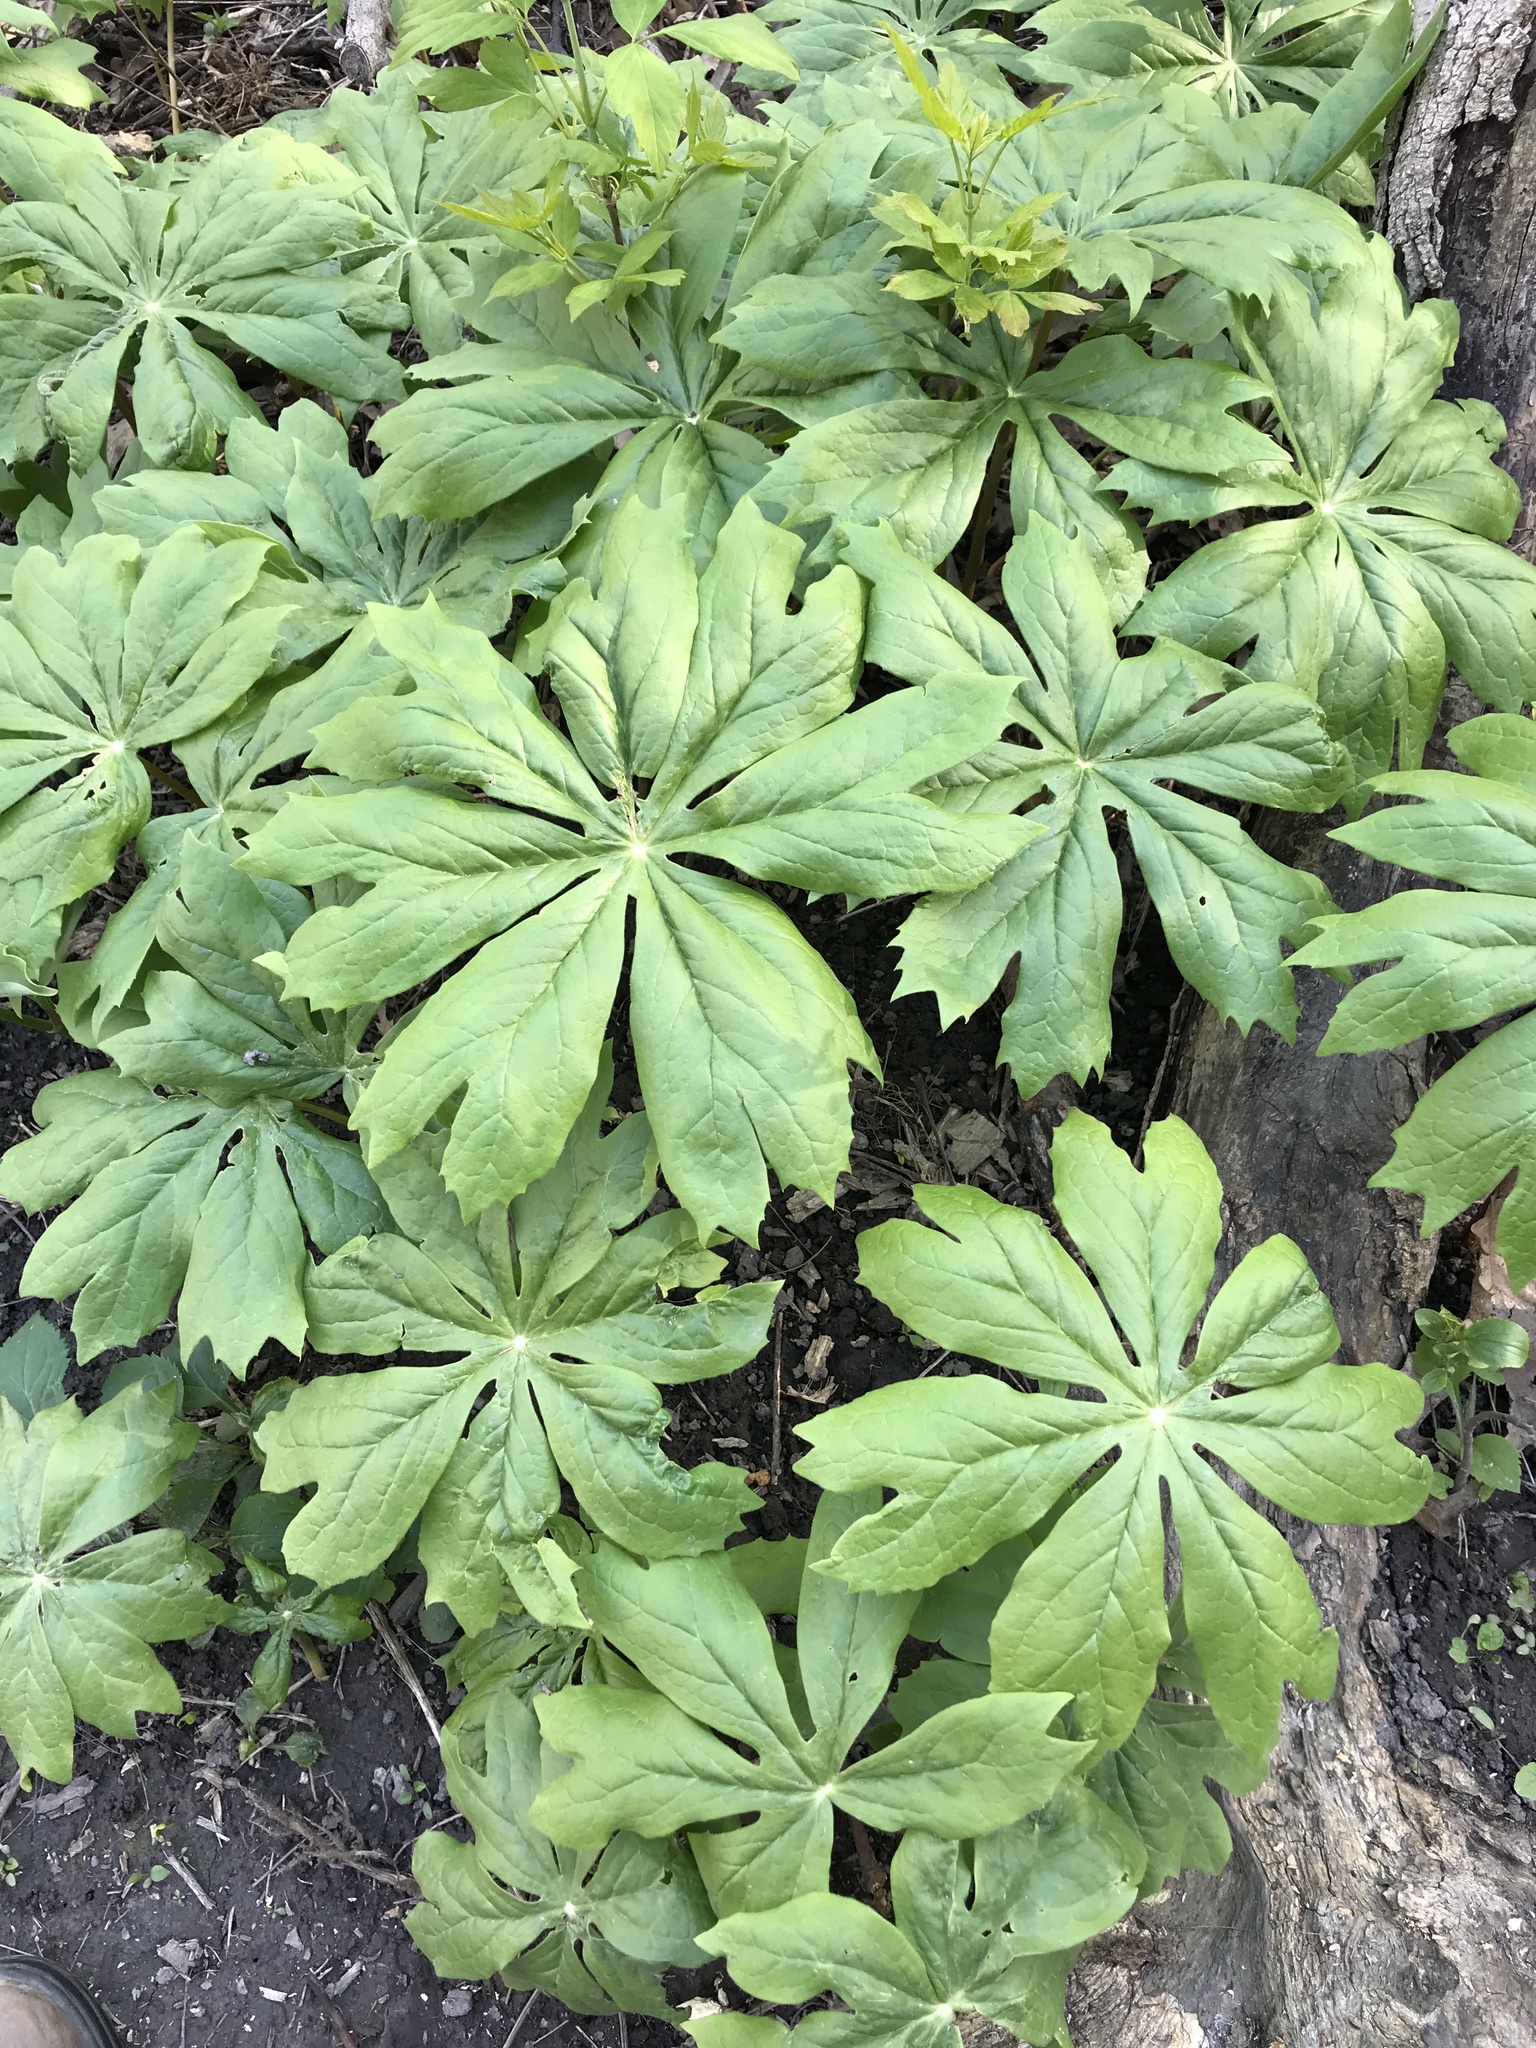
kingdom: Plantae
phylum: Tracheophyta
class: Magnoliopsida
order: Ranunculales
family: Berberidaceae
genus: Podophyllum
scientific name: Podophyllum peltatum
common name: Wild mandrake
